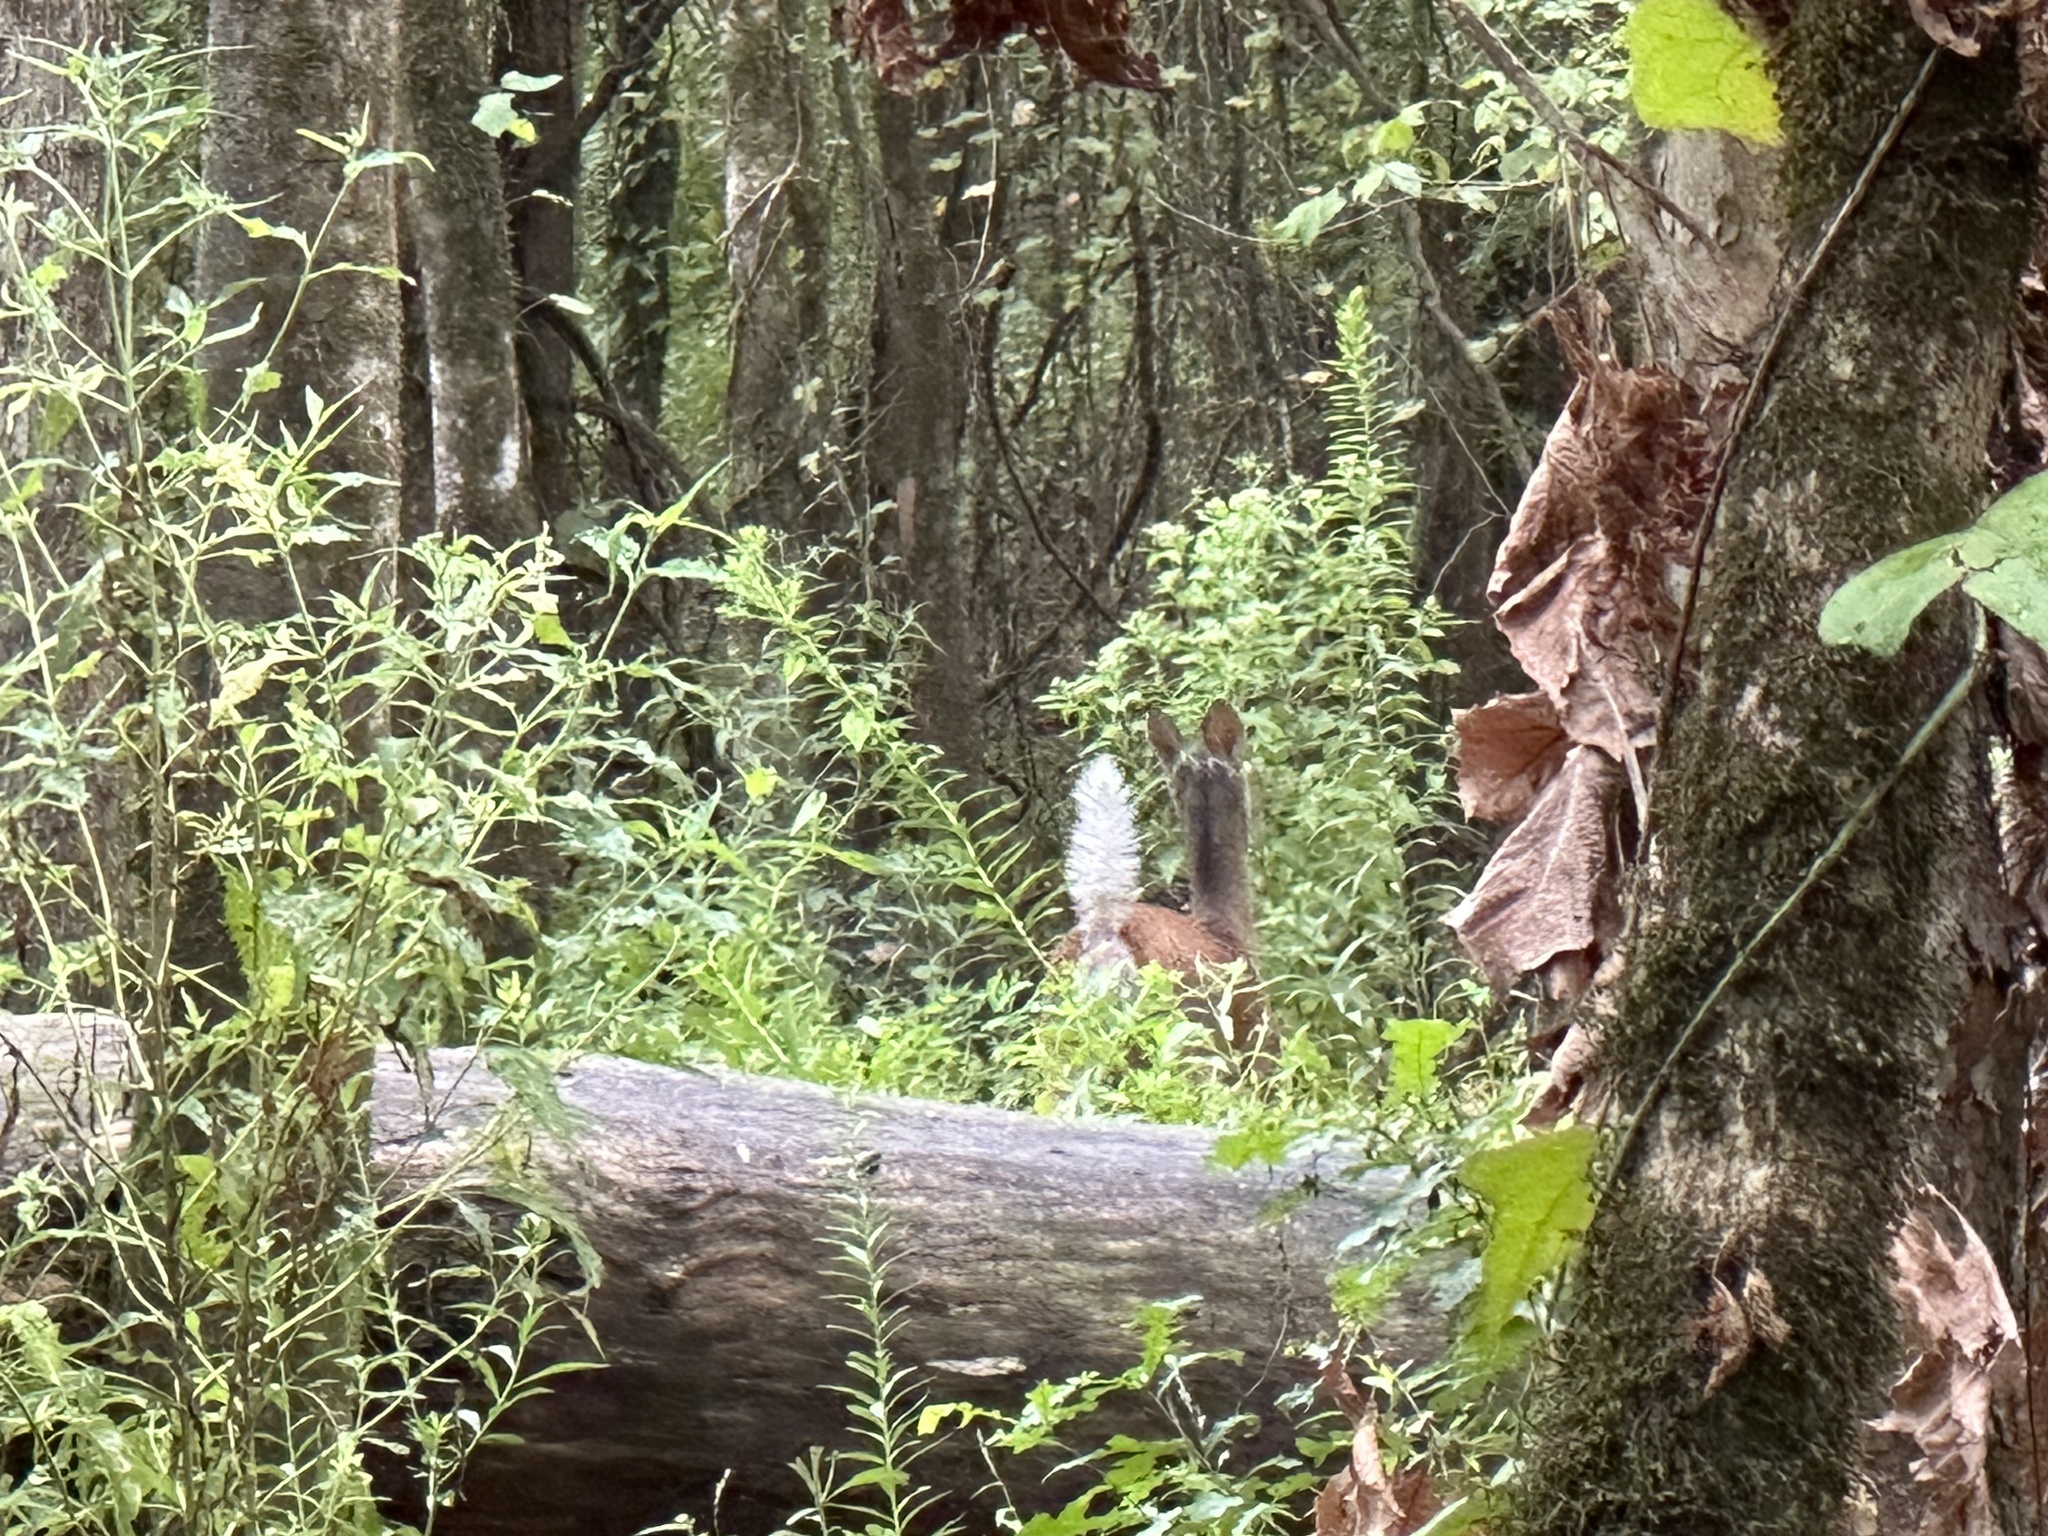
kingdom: Animalia
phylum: Chordata
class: Mammalia
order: Artiodactyla
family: Cervidae
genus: Odocoileus
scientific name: Odocoileus virginianus
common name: White-tailed deer
